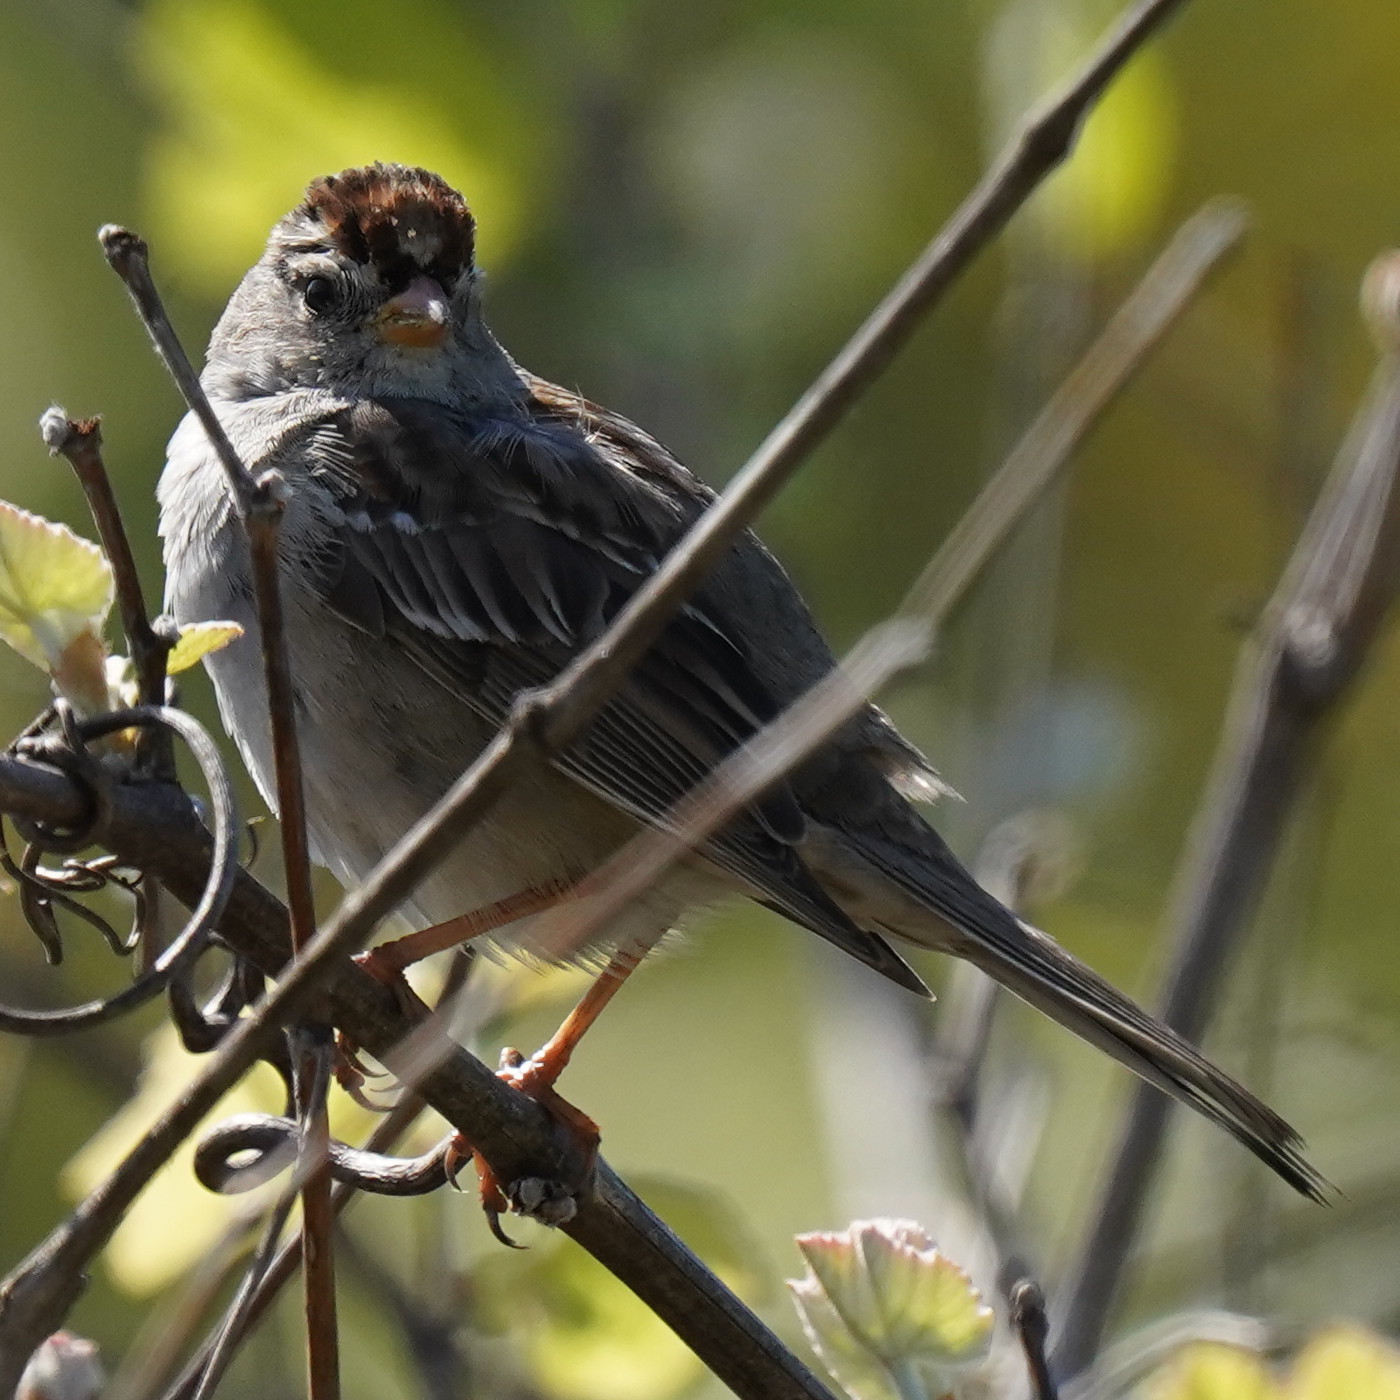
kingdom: Animalia
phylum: Chordata
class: Aves
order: Passeriformes
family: Passerellidae
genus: Zonotrichia
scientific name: Zonotrichia leucophrys
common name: White-crowned sparrow
